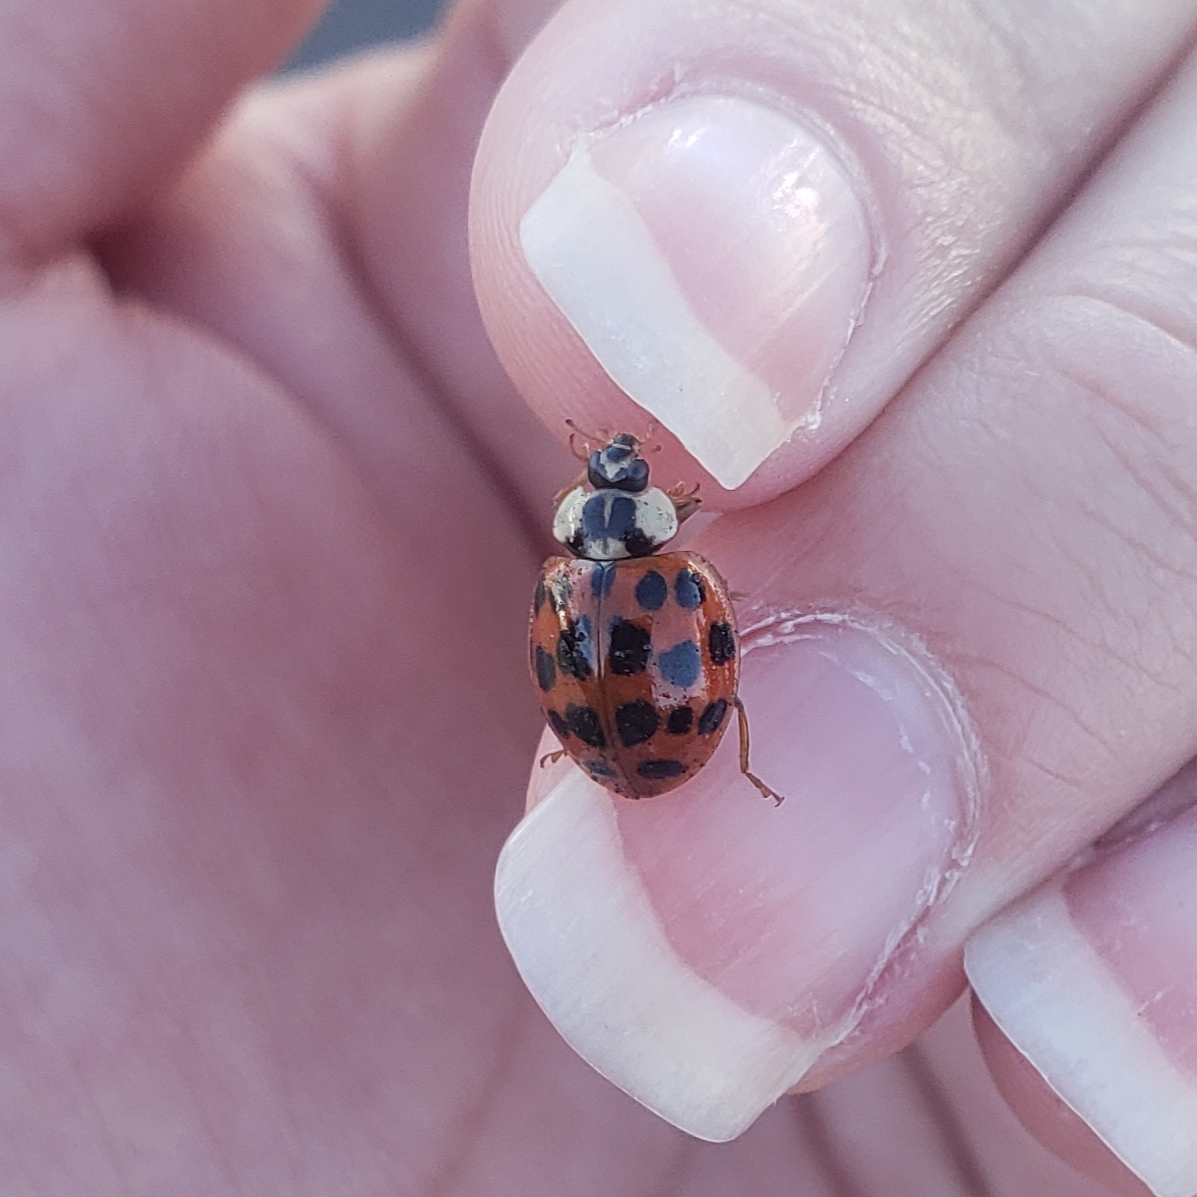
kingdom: Animalia
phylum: Arthropoda
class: Insecta
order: Coleoptera
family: Coccinellidae
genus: Harmonia
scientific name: Harmonia axyridis
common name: Harlequin ladybird
